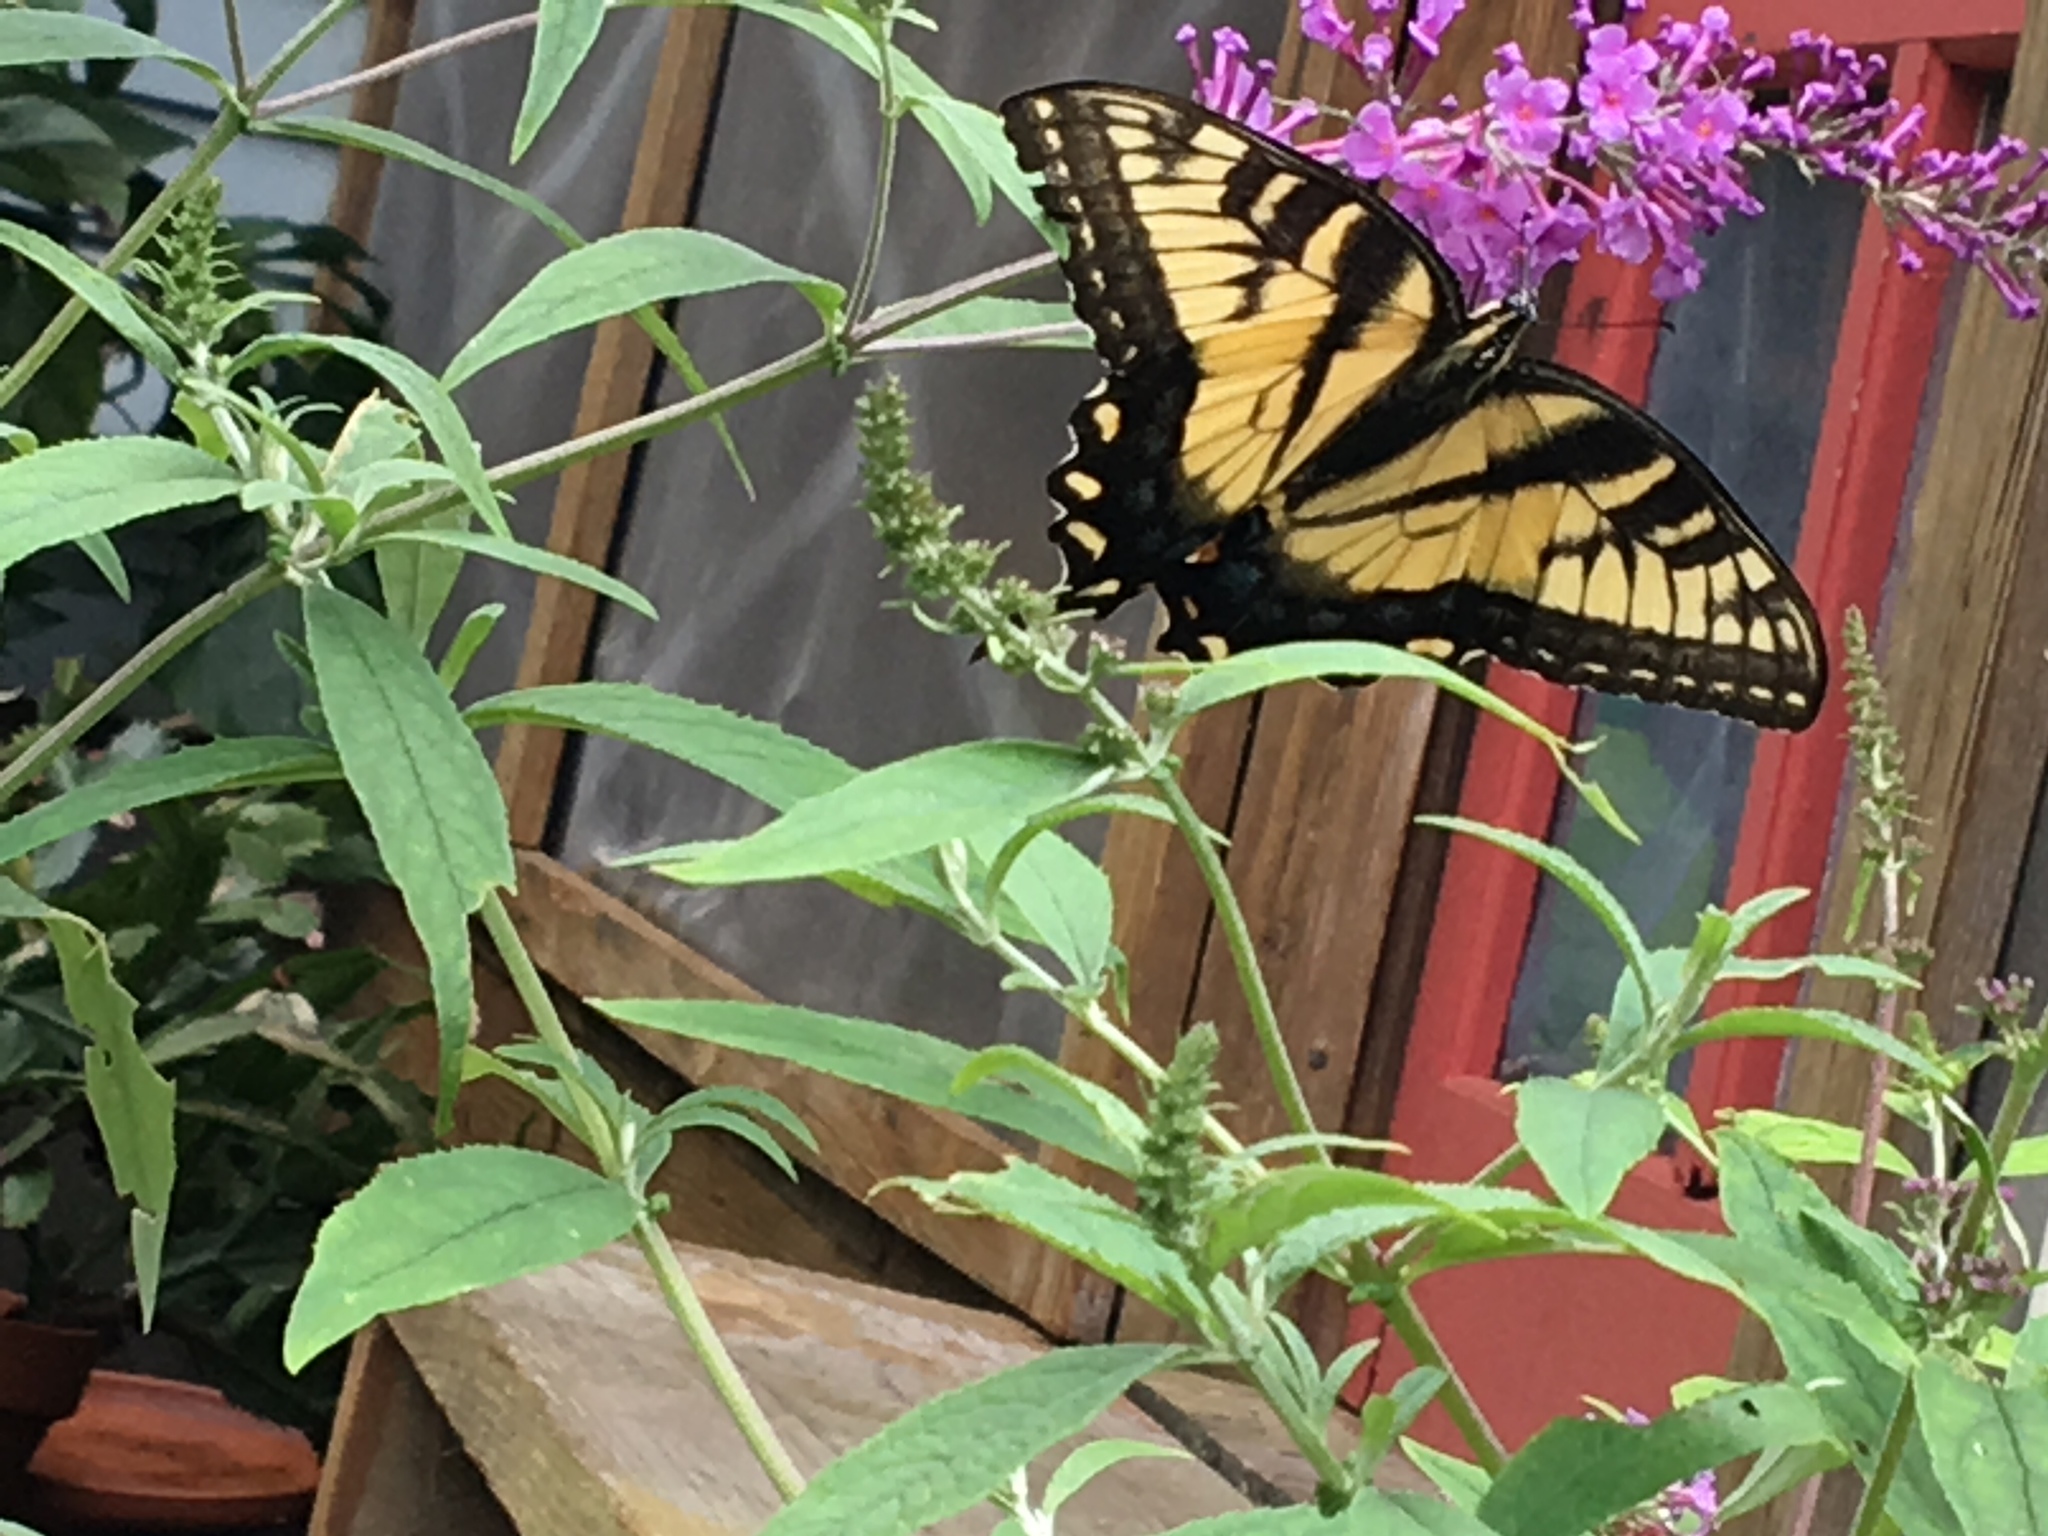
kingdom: Animalia
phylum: Arthropoda
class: Insecta
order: Lepidoptera
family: Papilionidae
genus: Papilio
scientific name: Papilio glaucus
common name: Tiger swallowtail
